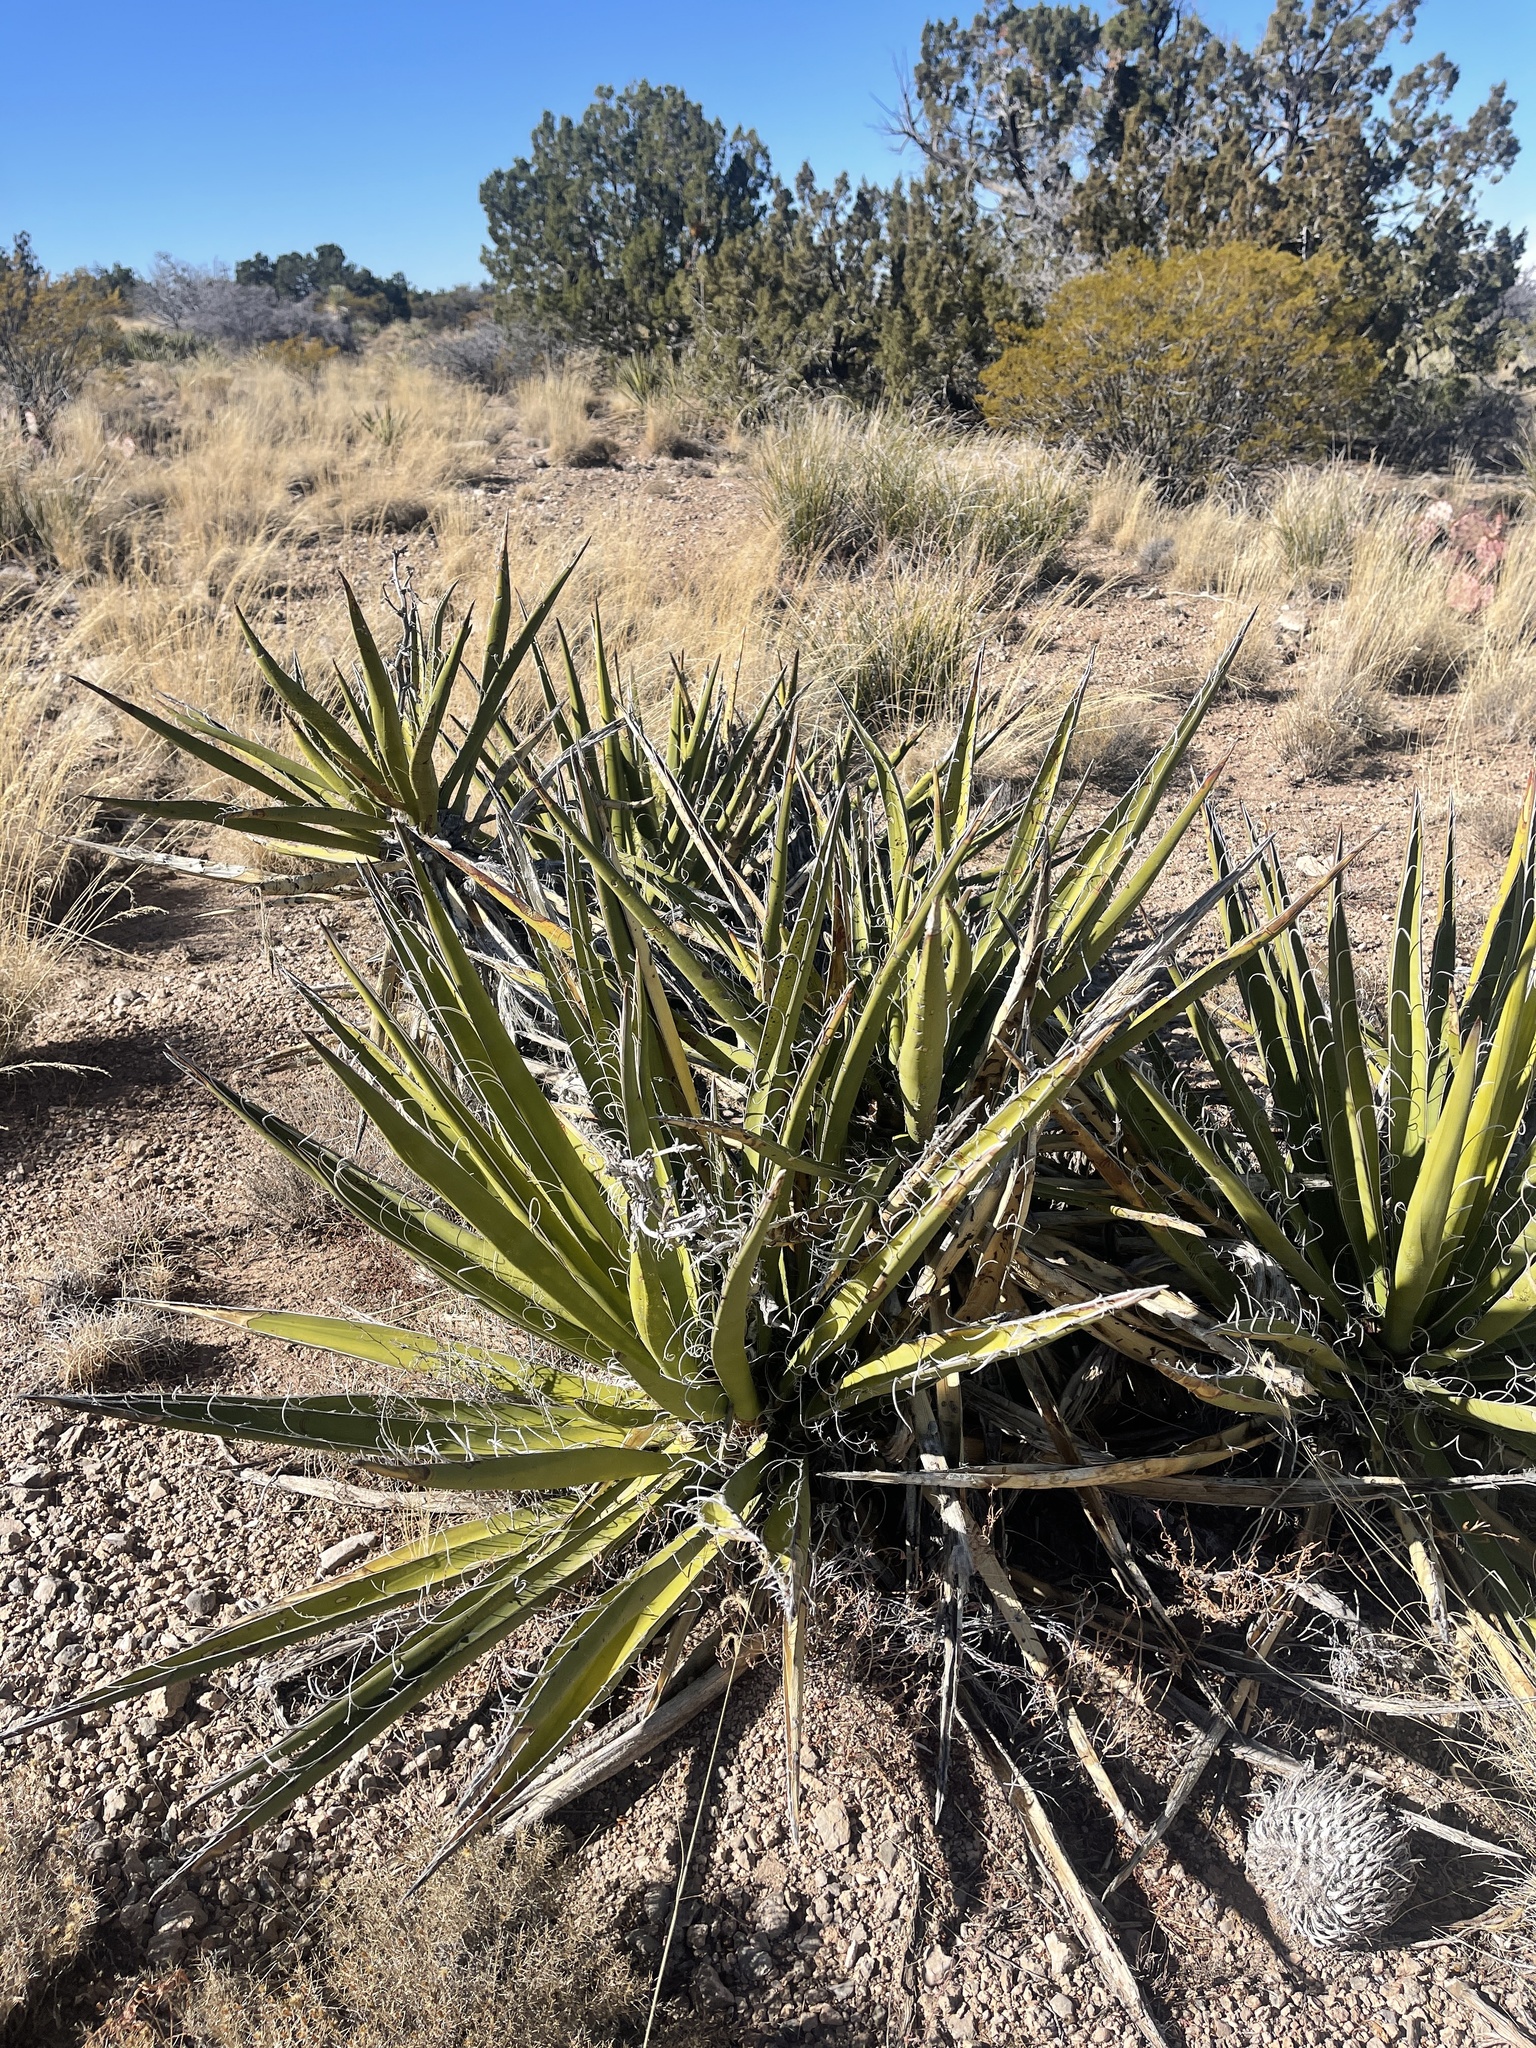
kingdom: Plantae
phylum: Tracheophyta
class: Liliopsida
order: Asparagales
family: Asparagaceae
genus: Yucca
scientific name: Yucca baccata
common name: Banana yucca
